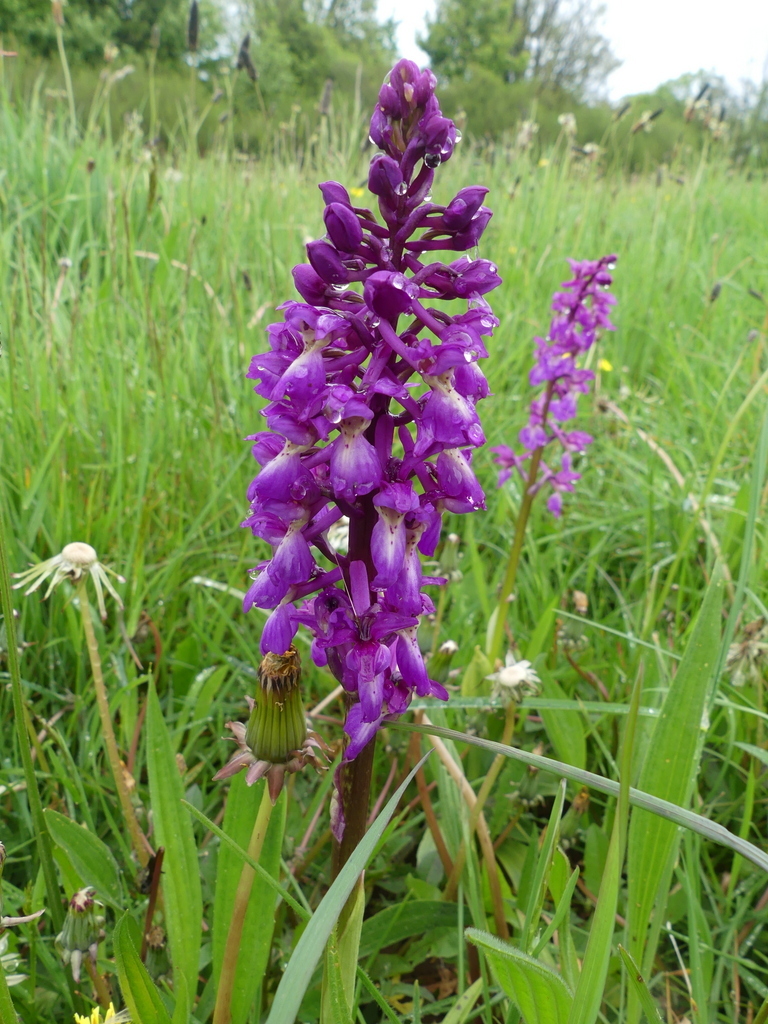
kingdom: Plantae
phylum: Tracheophyta
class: Liliopsida
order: Asparagales
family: Orchidaceae
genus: Orchis
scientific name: Orchis mascula
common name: Early-purple orchid
